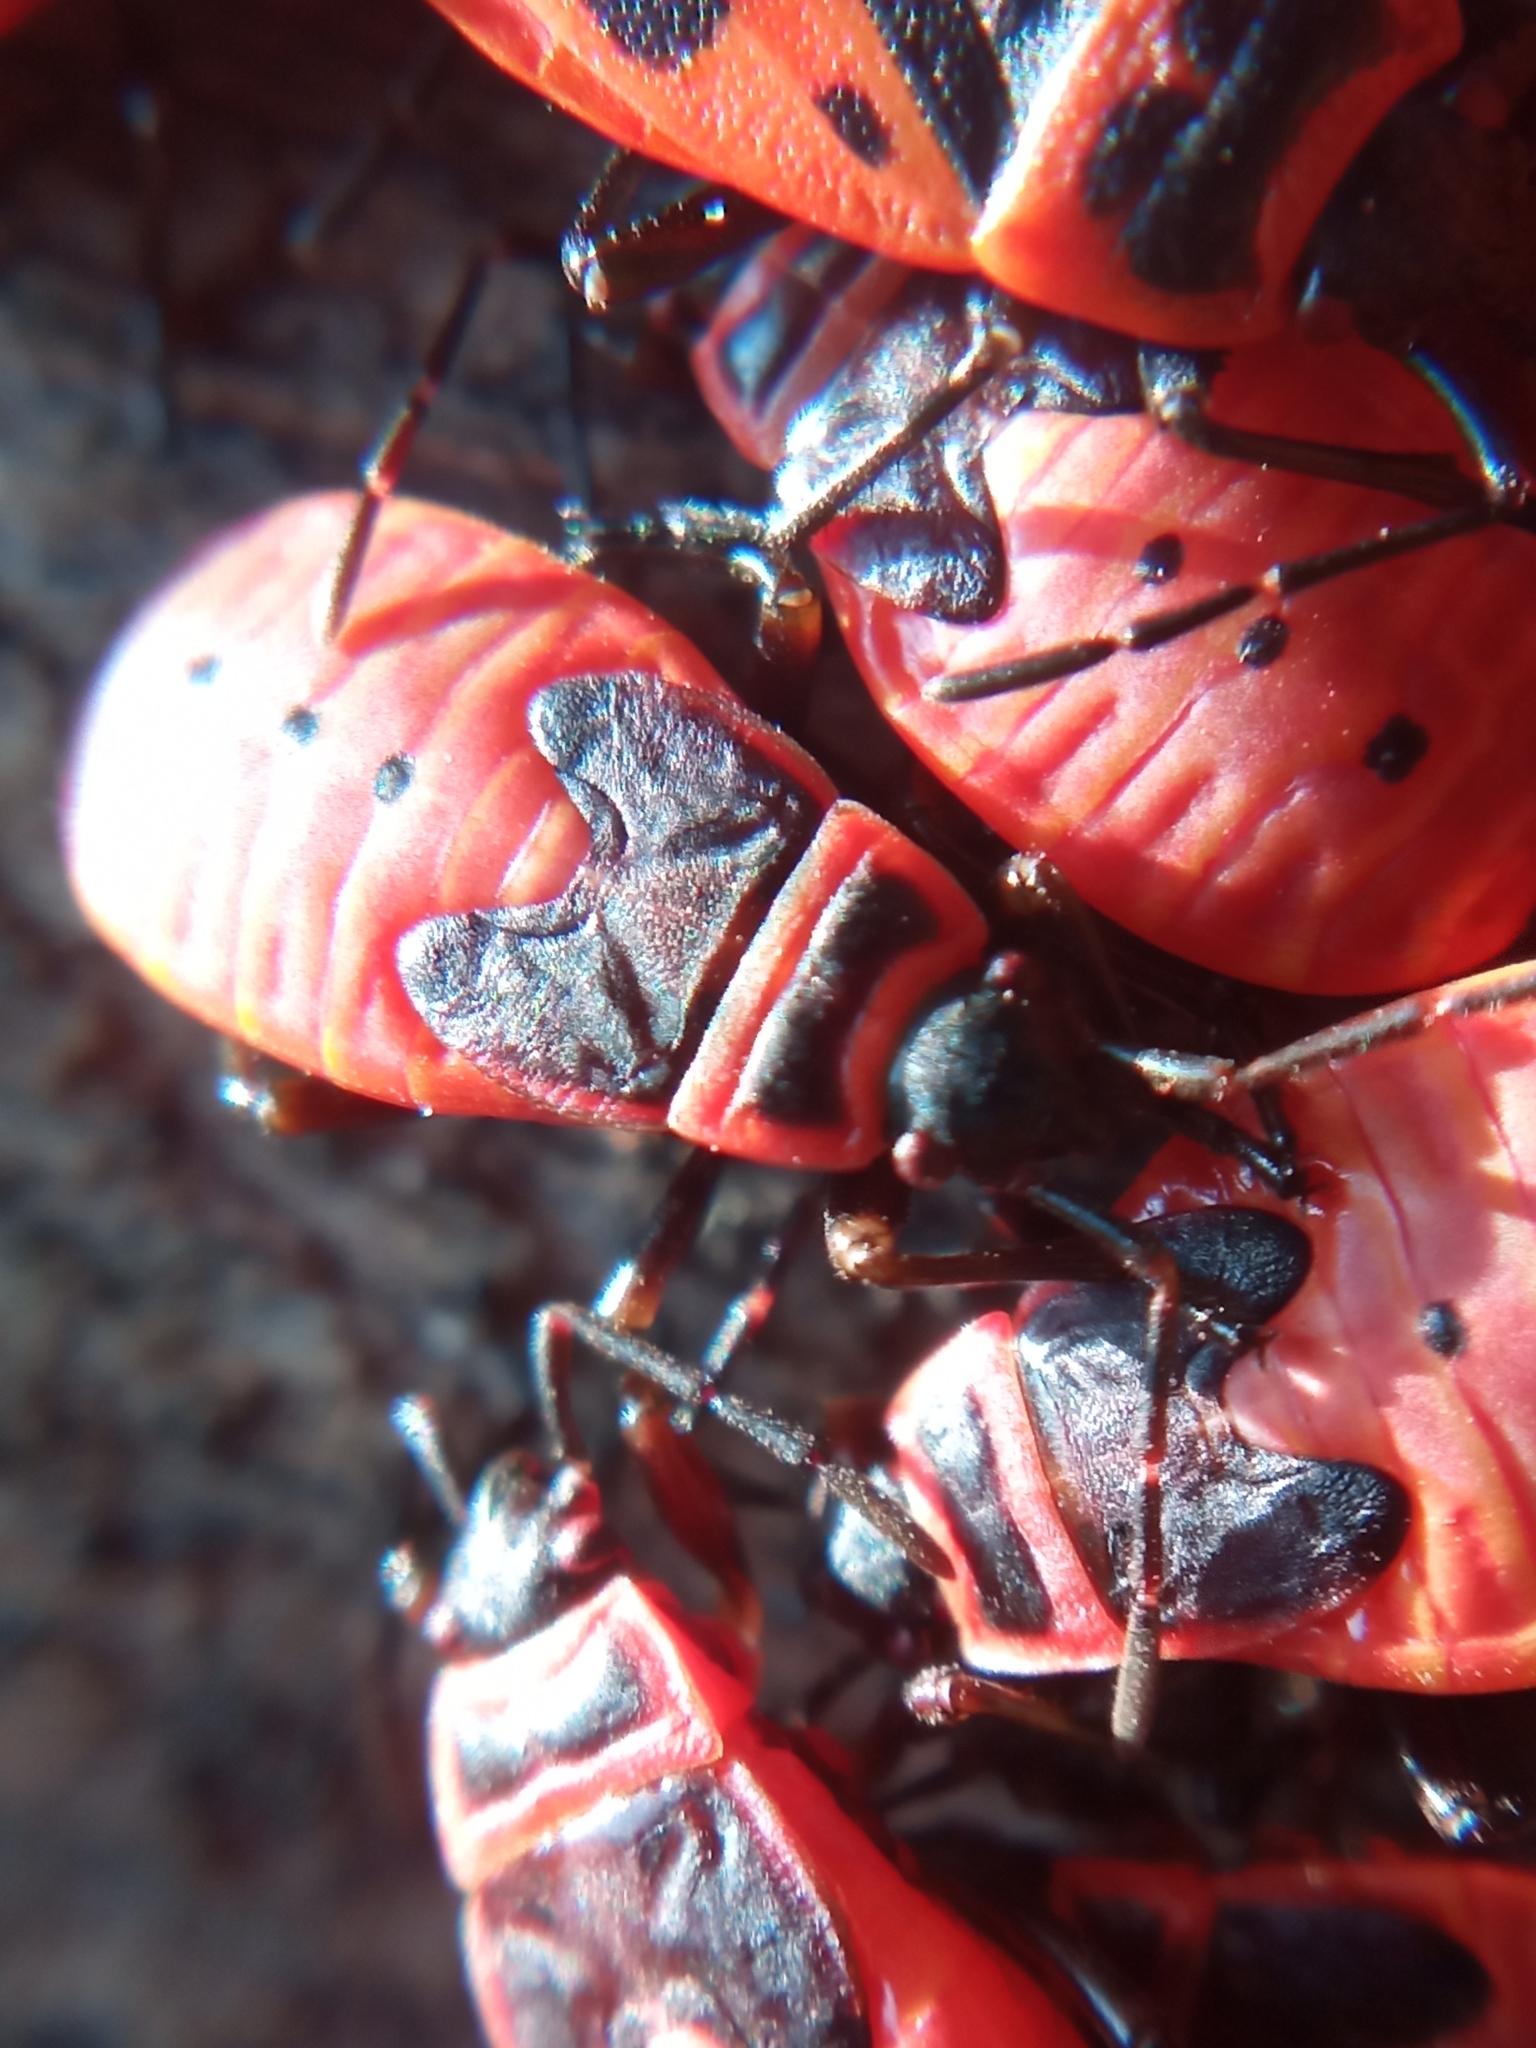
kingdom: Animalia
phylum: Arthropoda
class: Insecta
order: Hemiptera
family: Pyrrhocoridae
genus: Pyrrhocoris
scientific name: Pyrrhocoris apterus
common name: Firebug
